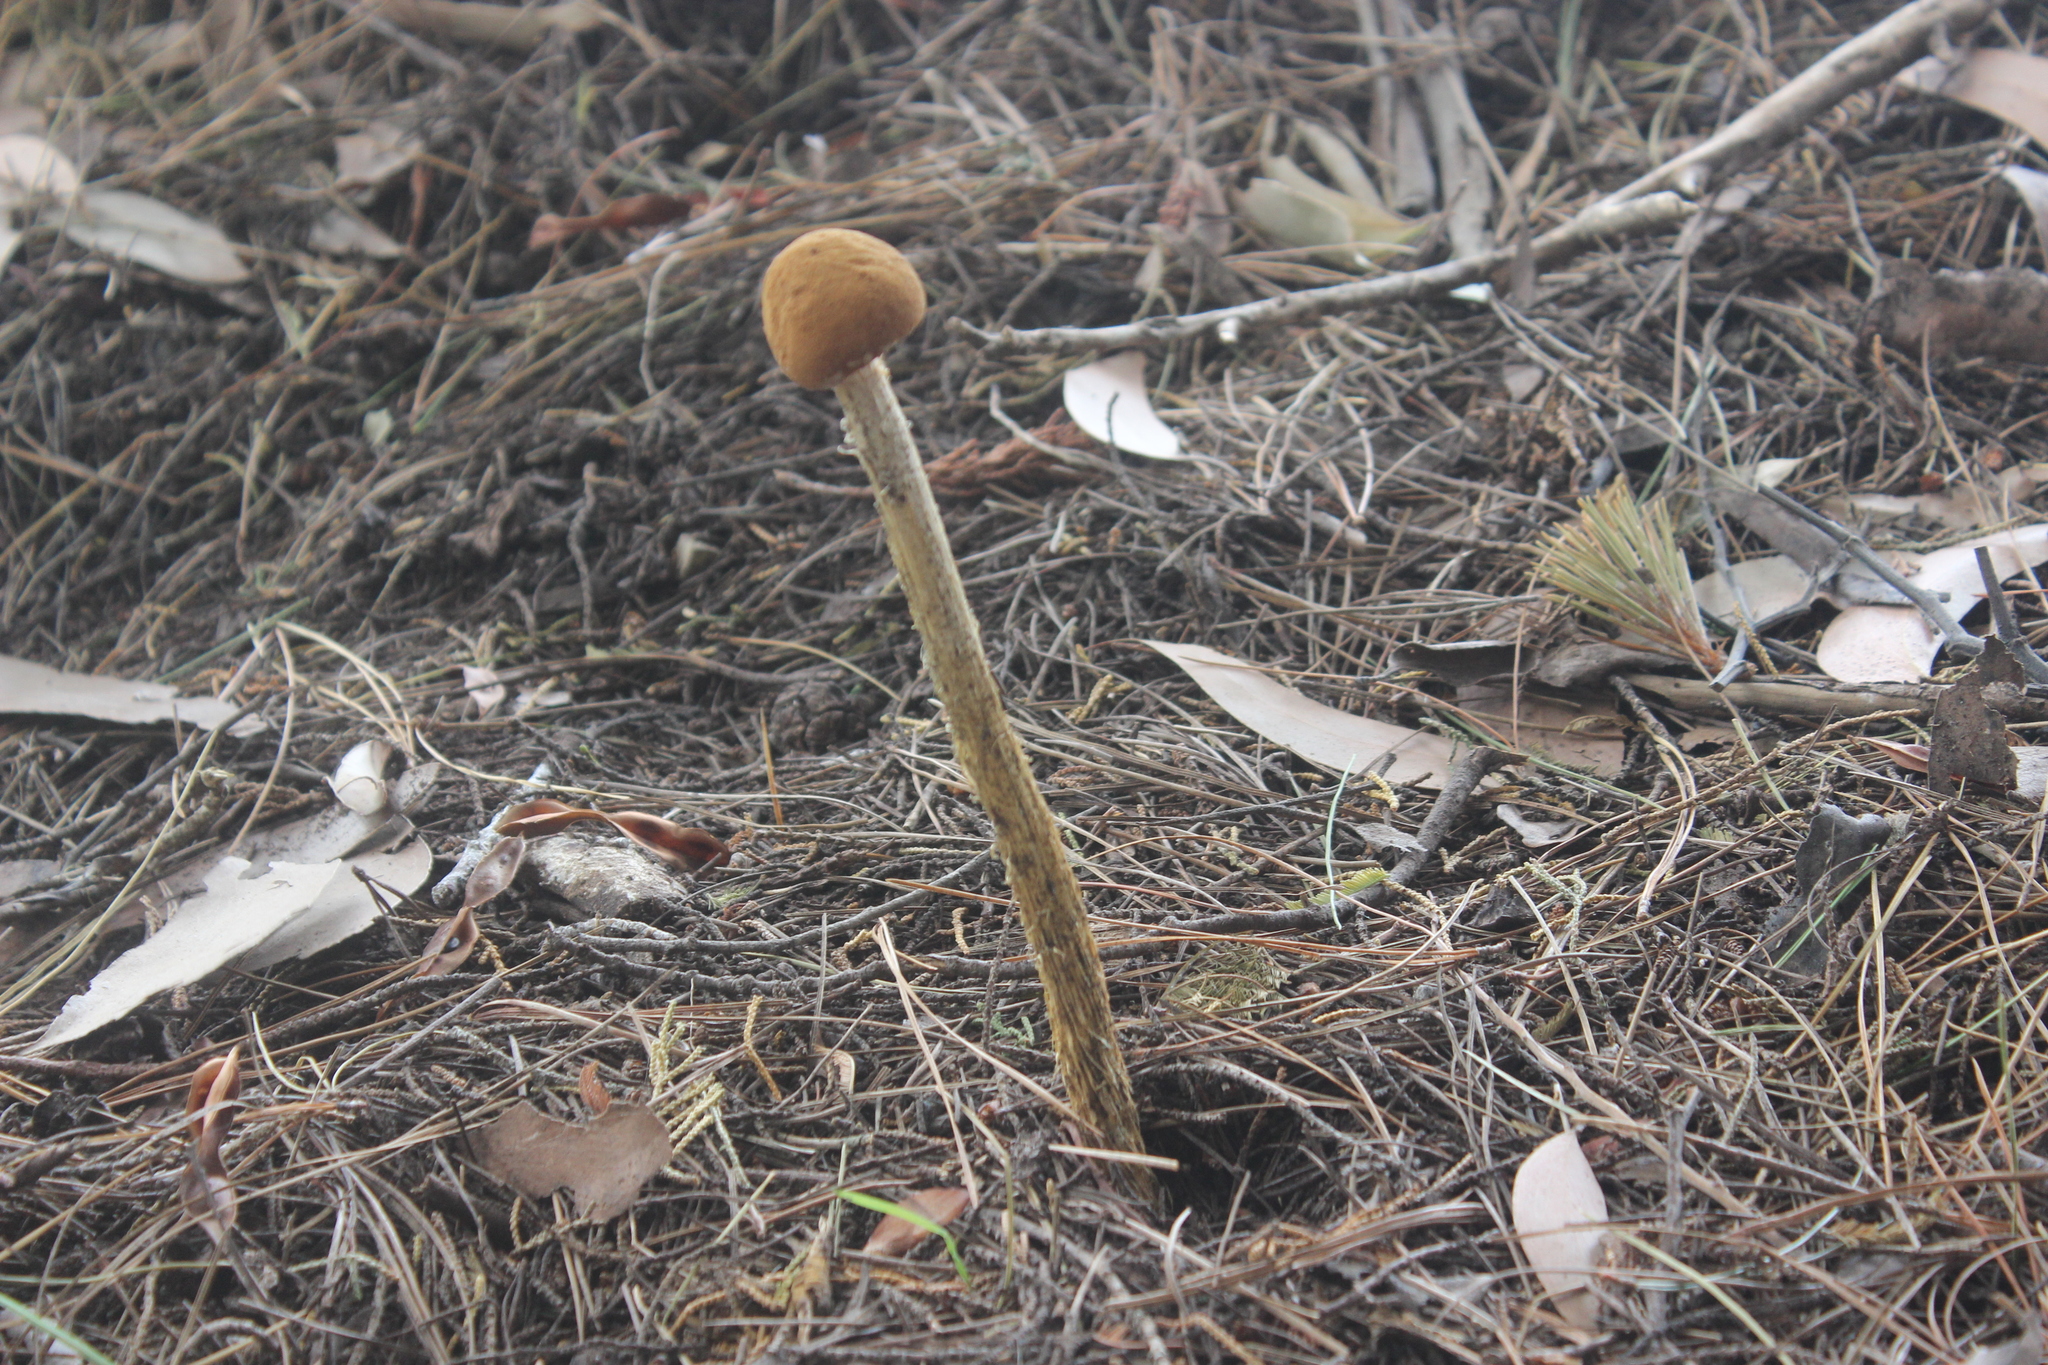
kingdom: Fungi
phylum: Basidiomycota
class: Agaricomycetes
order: Agaricales
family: Agaricaceae
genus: Battarrea
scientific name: Battarrea phalloides
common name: Sandy stiltball
